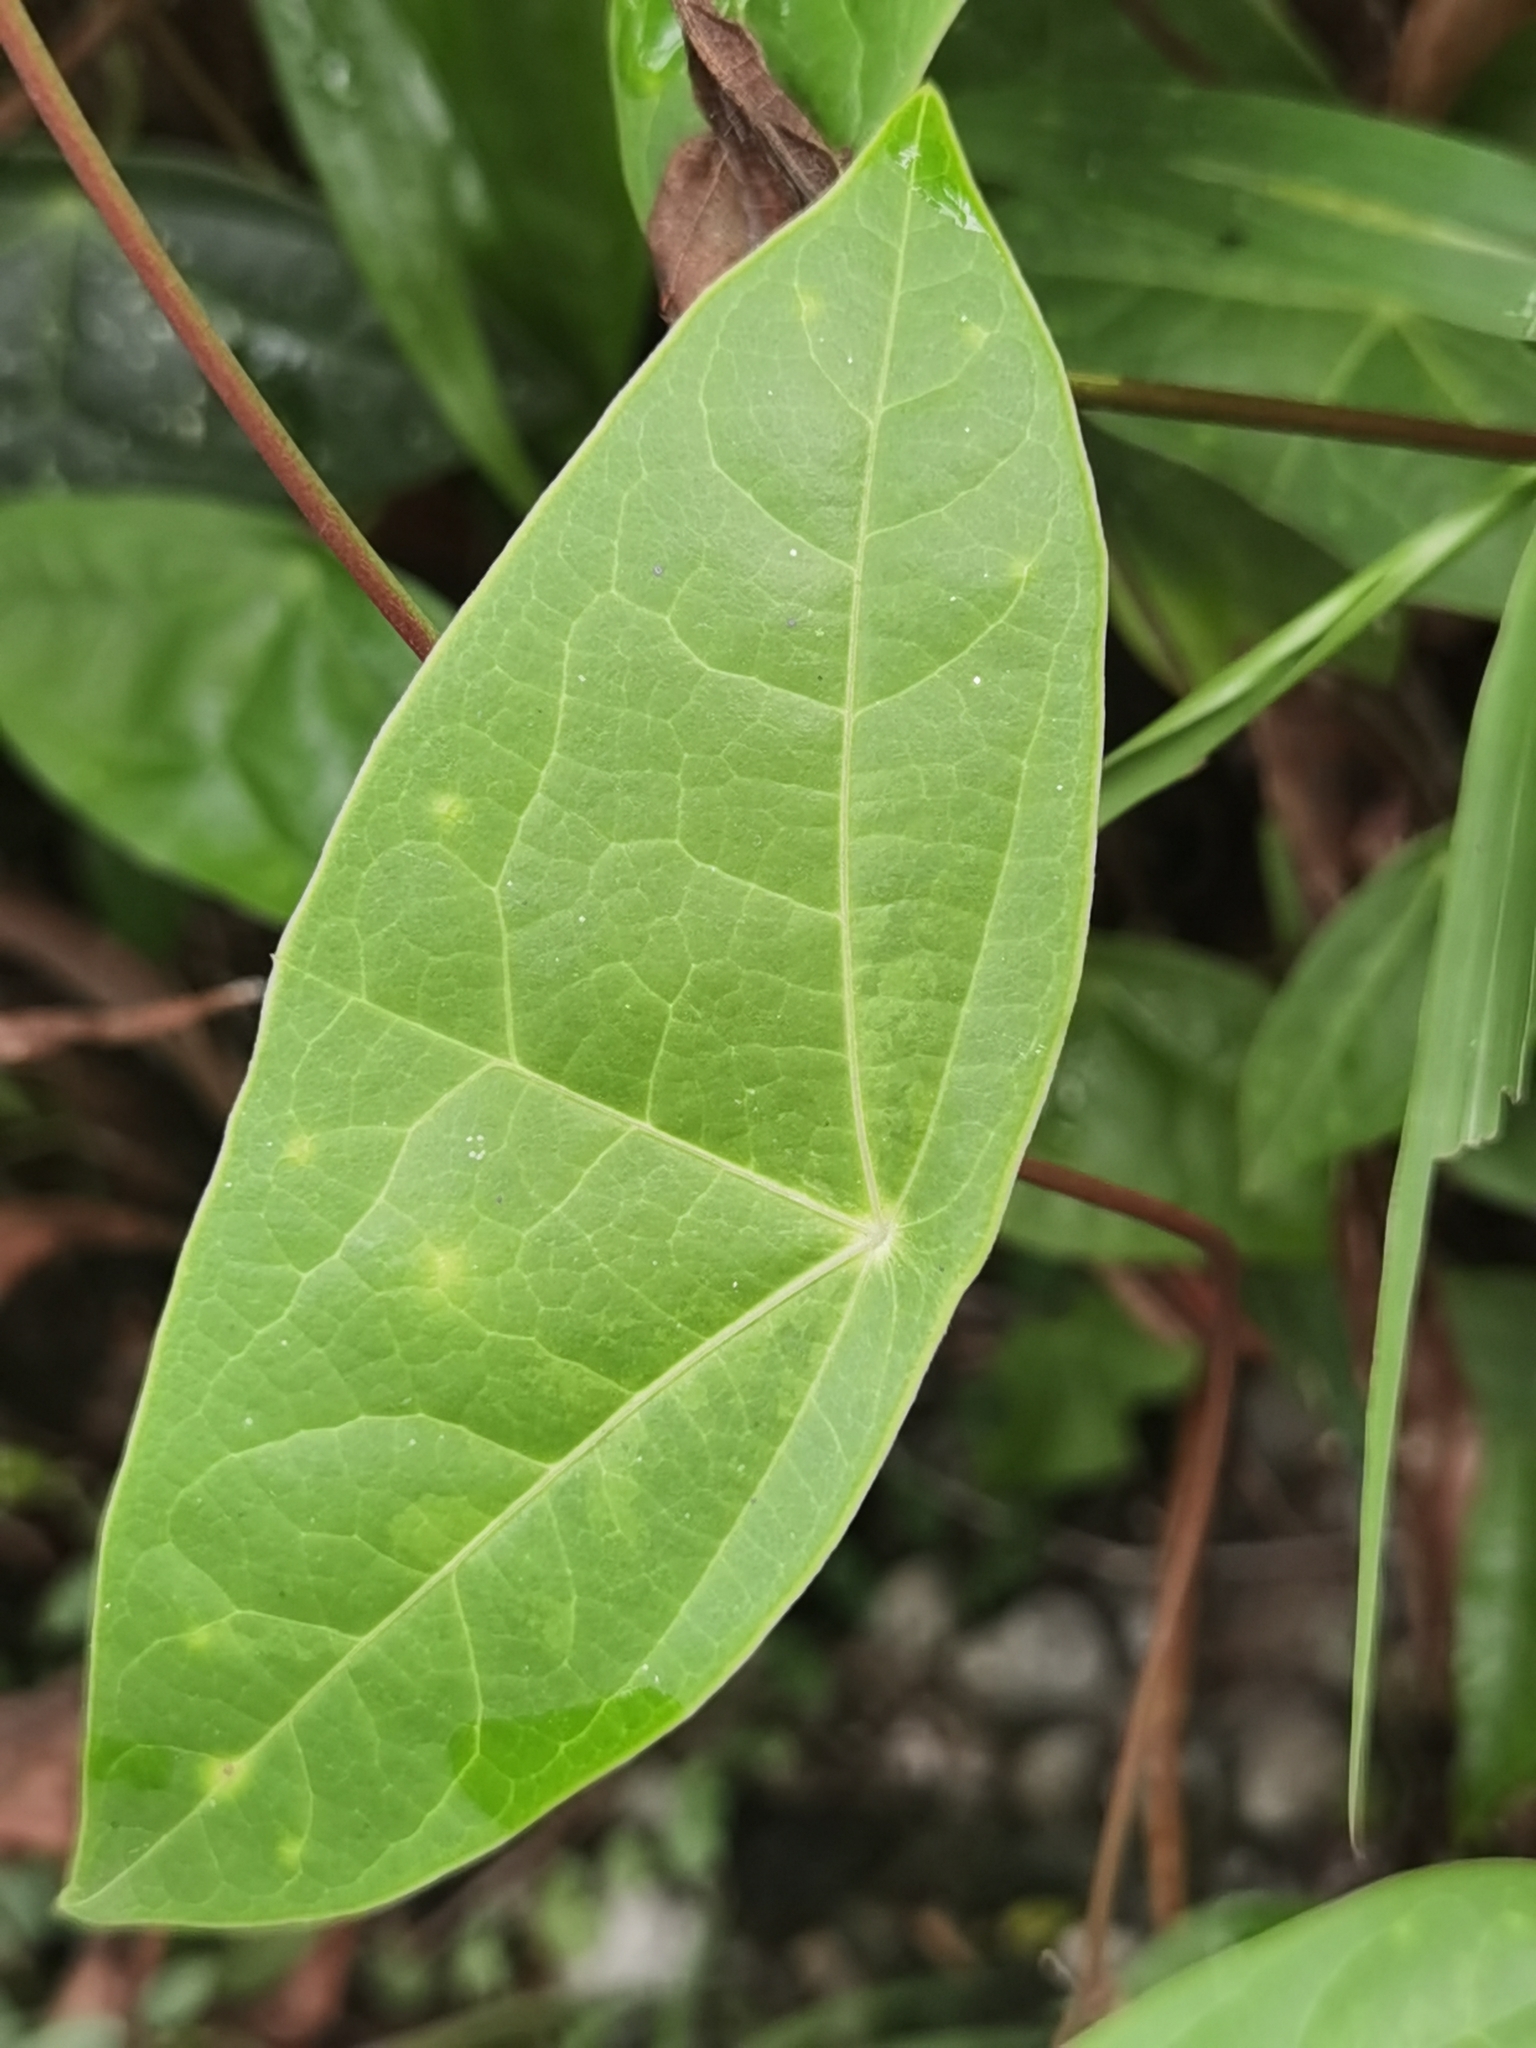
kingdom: Plantae
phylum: Tracheophyta
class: Magnoliopsida
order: Malpighiales
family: Passifloraceae
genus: Passiflora
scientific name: Passiflora megacoriacea
